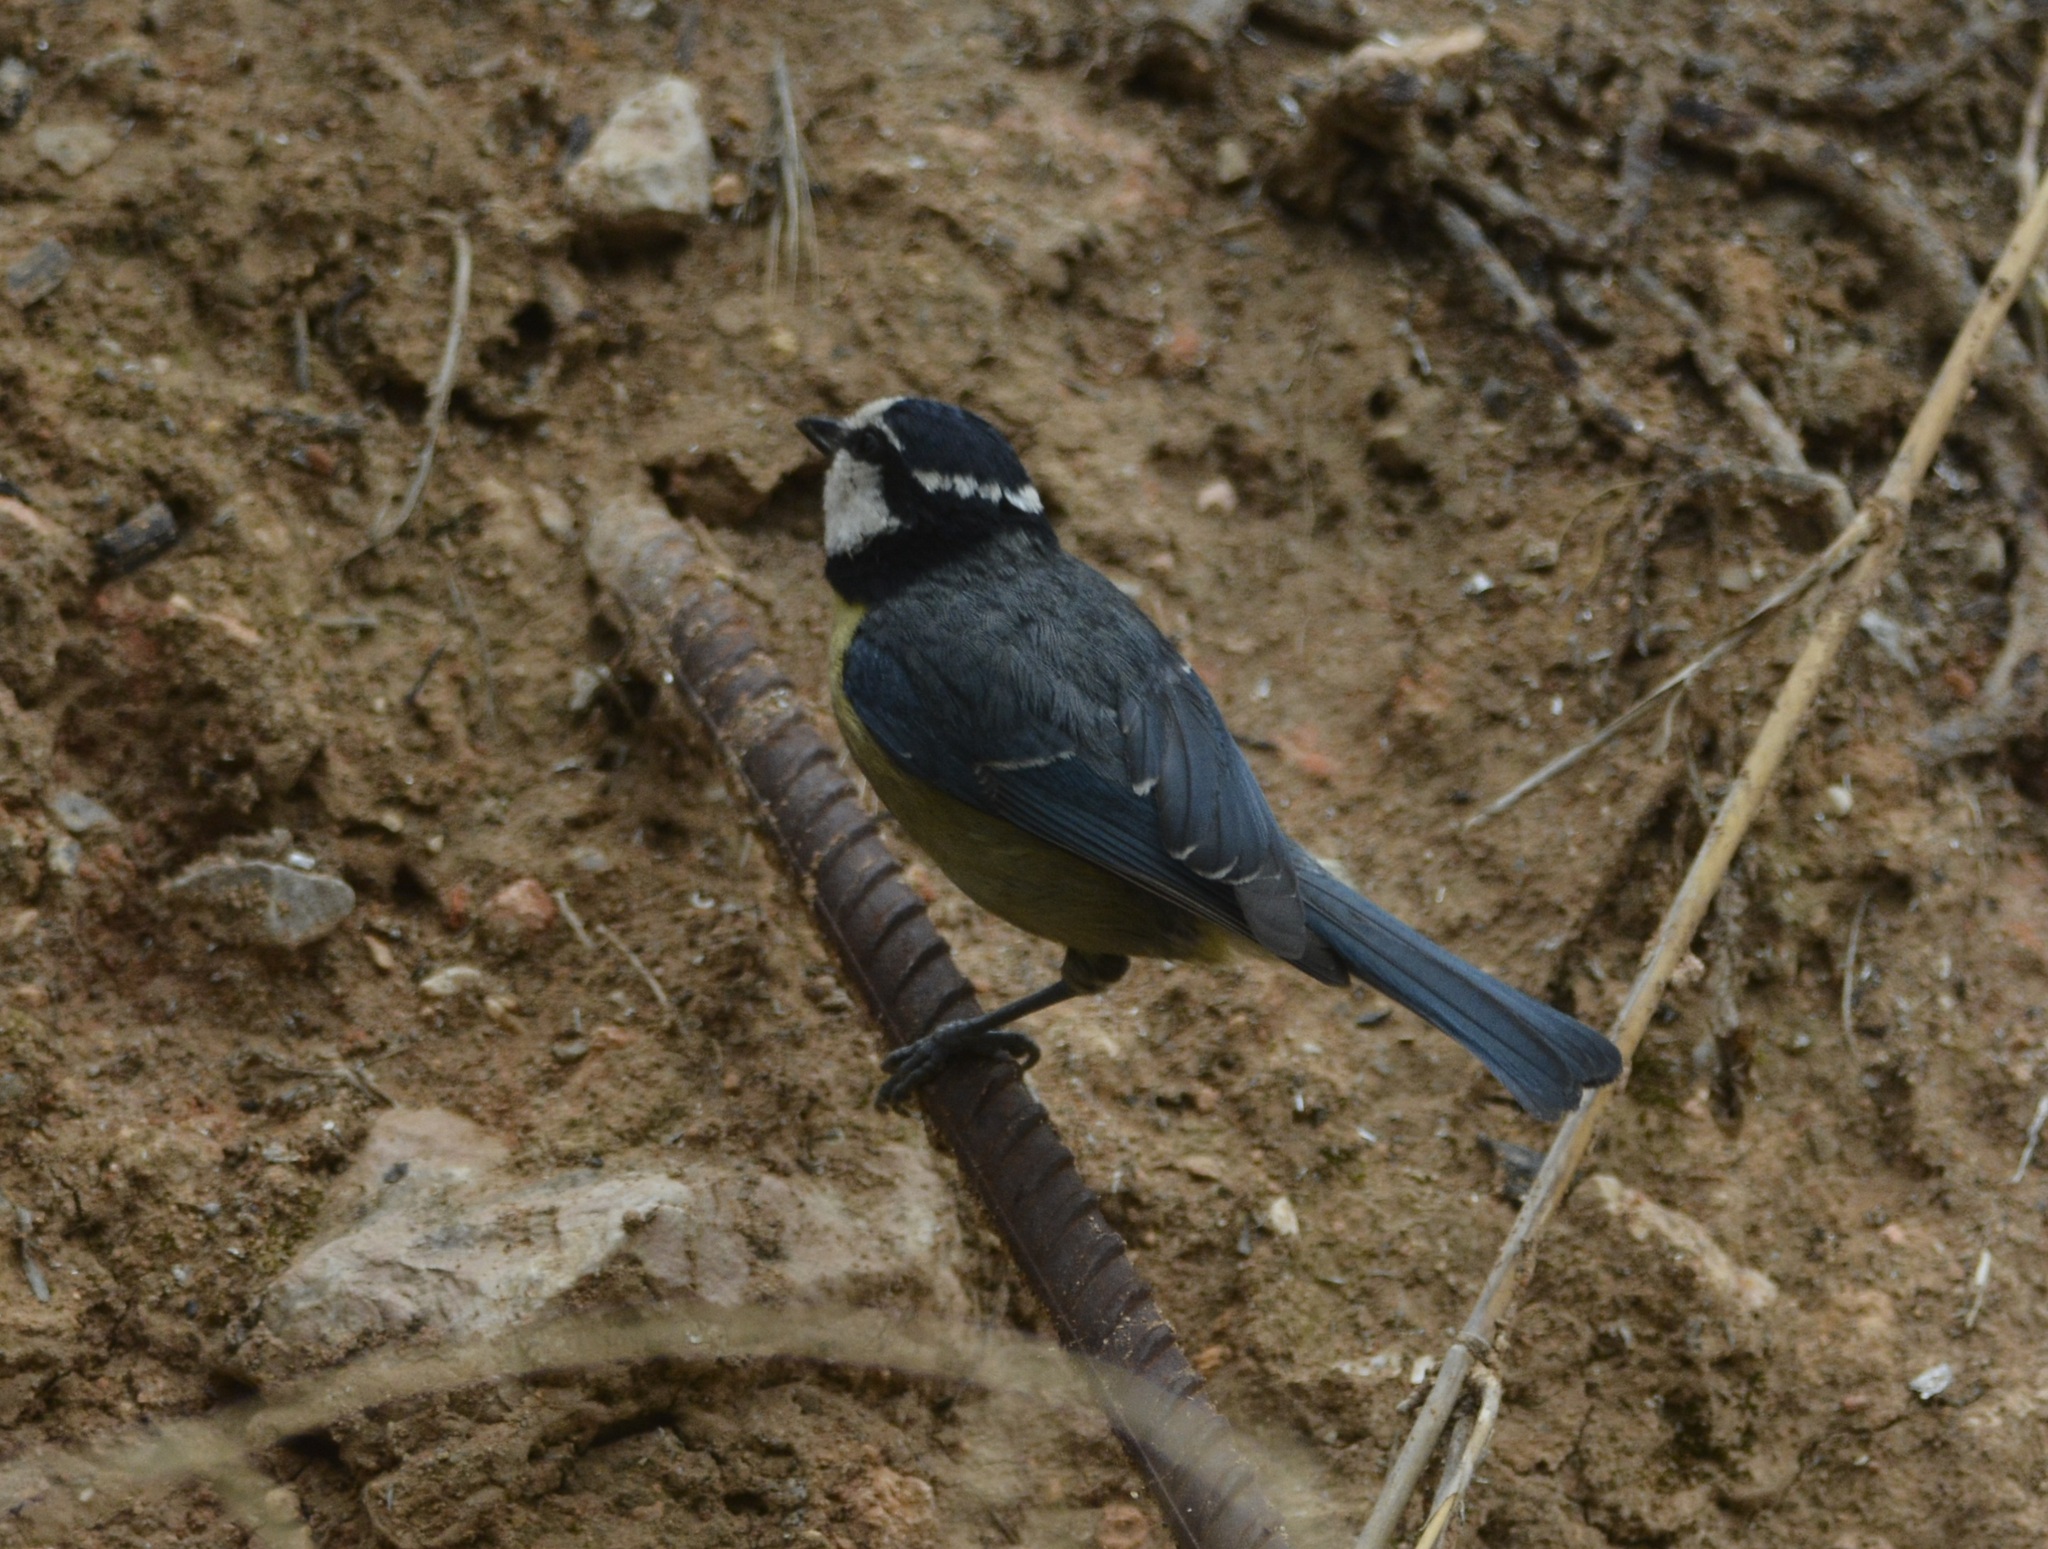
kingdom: Animalia
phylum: Chordata
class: Aves
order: Passeriformes
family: Paridae
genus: Cyanistes
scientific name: Cyanistes teneriffae
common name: African blue tit
